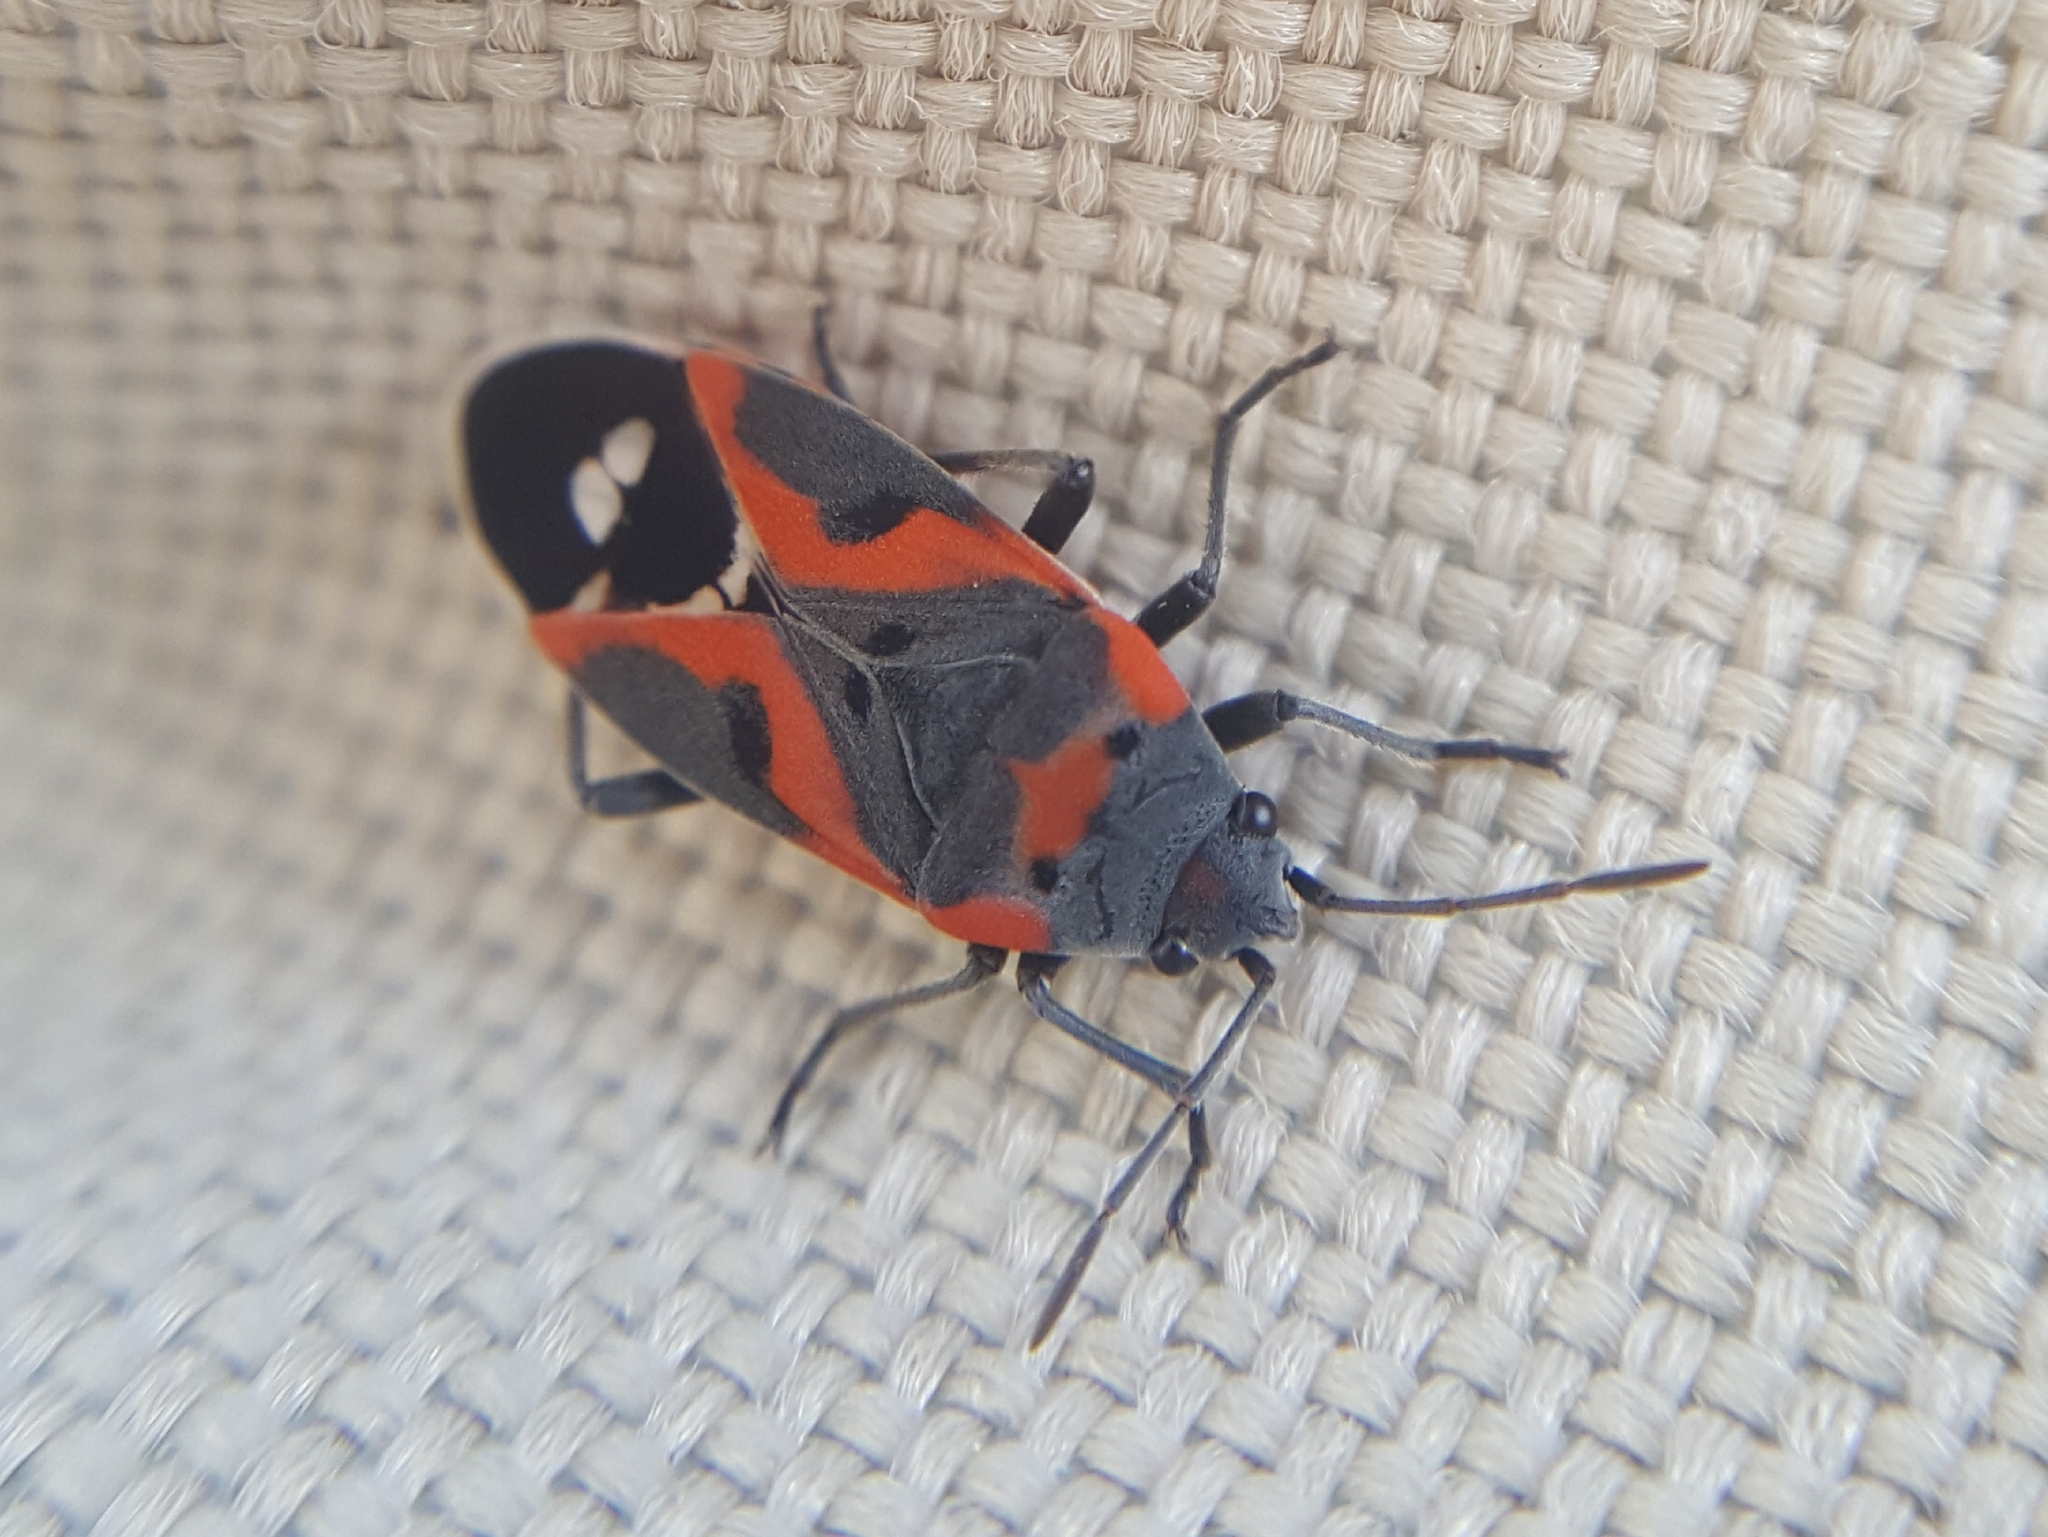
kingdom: Animalia
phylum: Arthropoda
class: Insecta
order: Hemiptera
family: Lygaeidae
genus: Lygaeus
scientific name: Lygaeus kalmii
